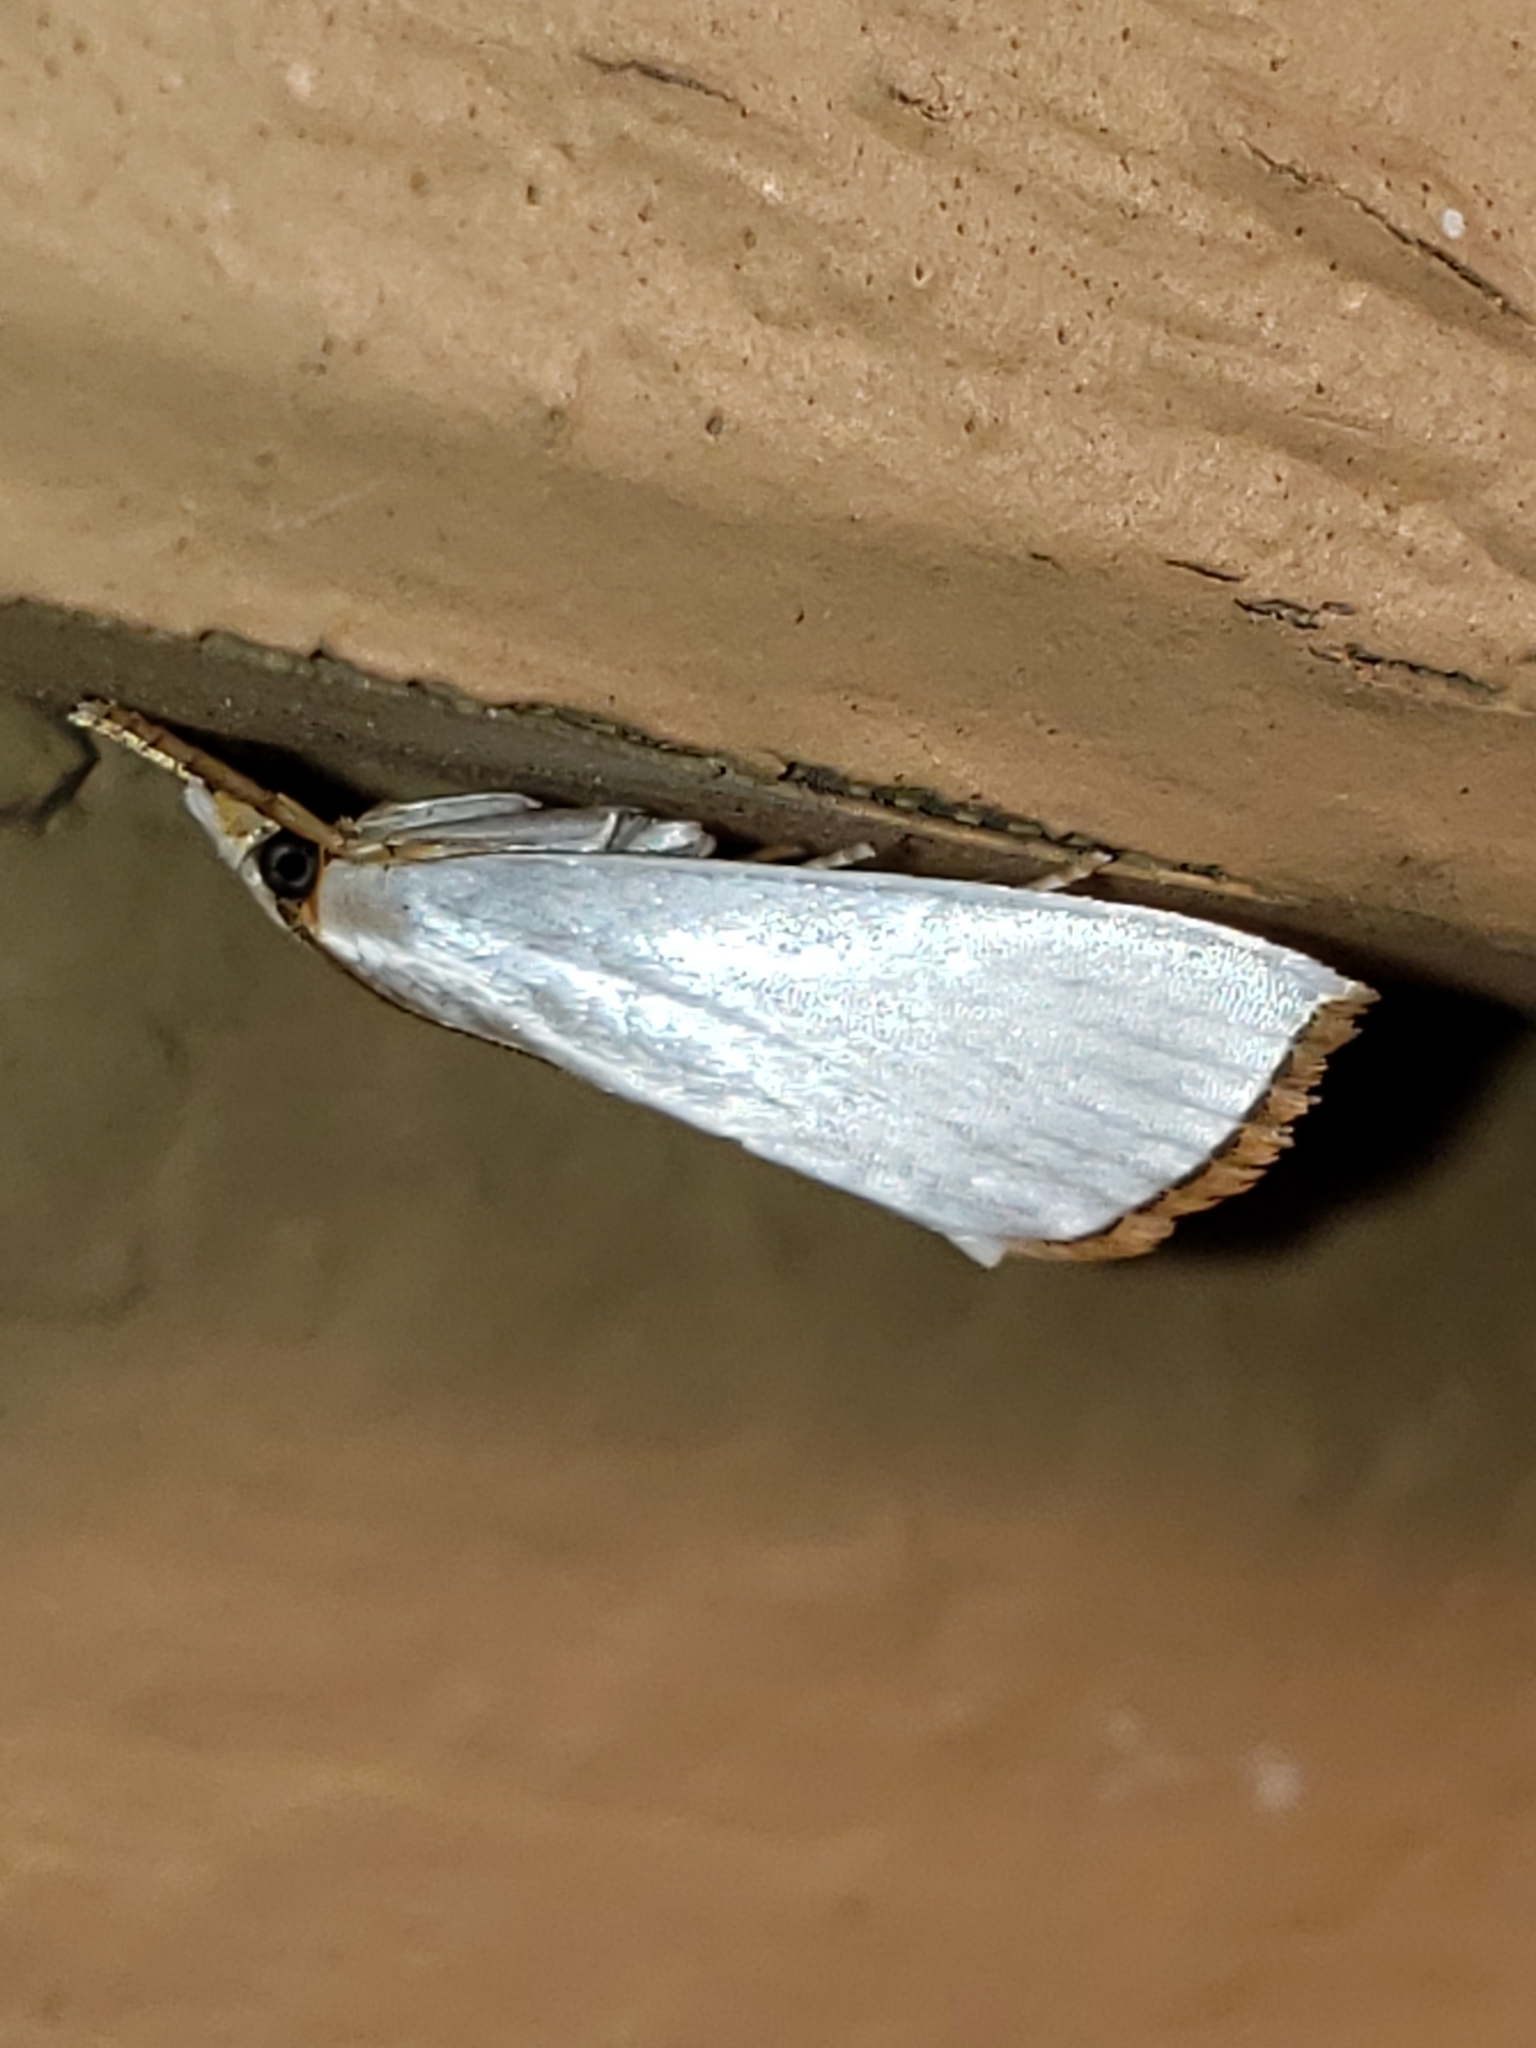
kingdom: Animalia
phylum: Arthropoda
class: Insecta
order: Lepidoptera
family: Crambidae
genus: Argyria
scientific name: Argyria nivalis
